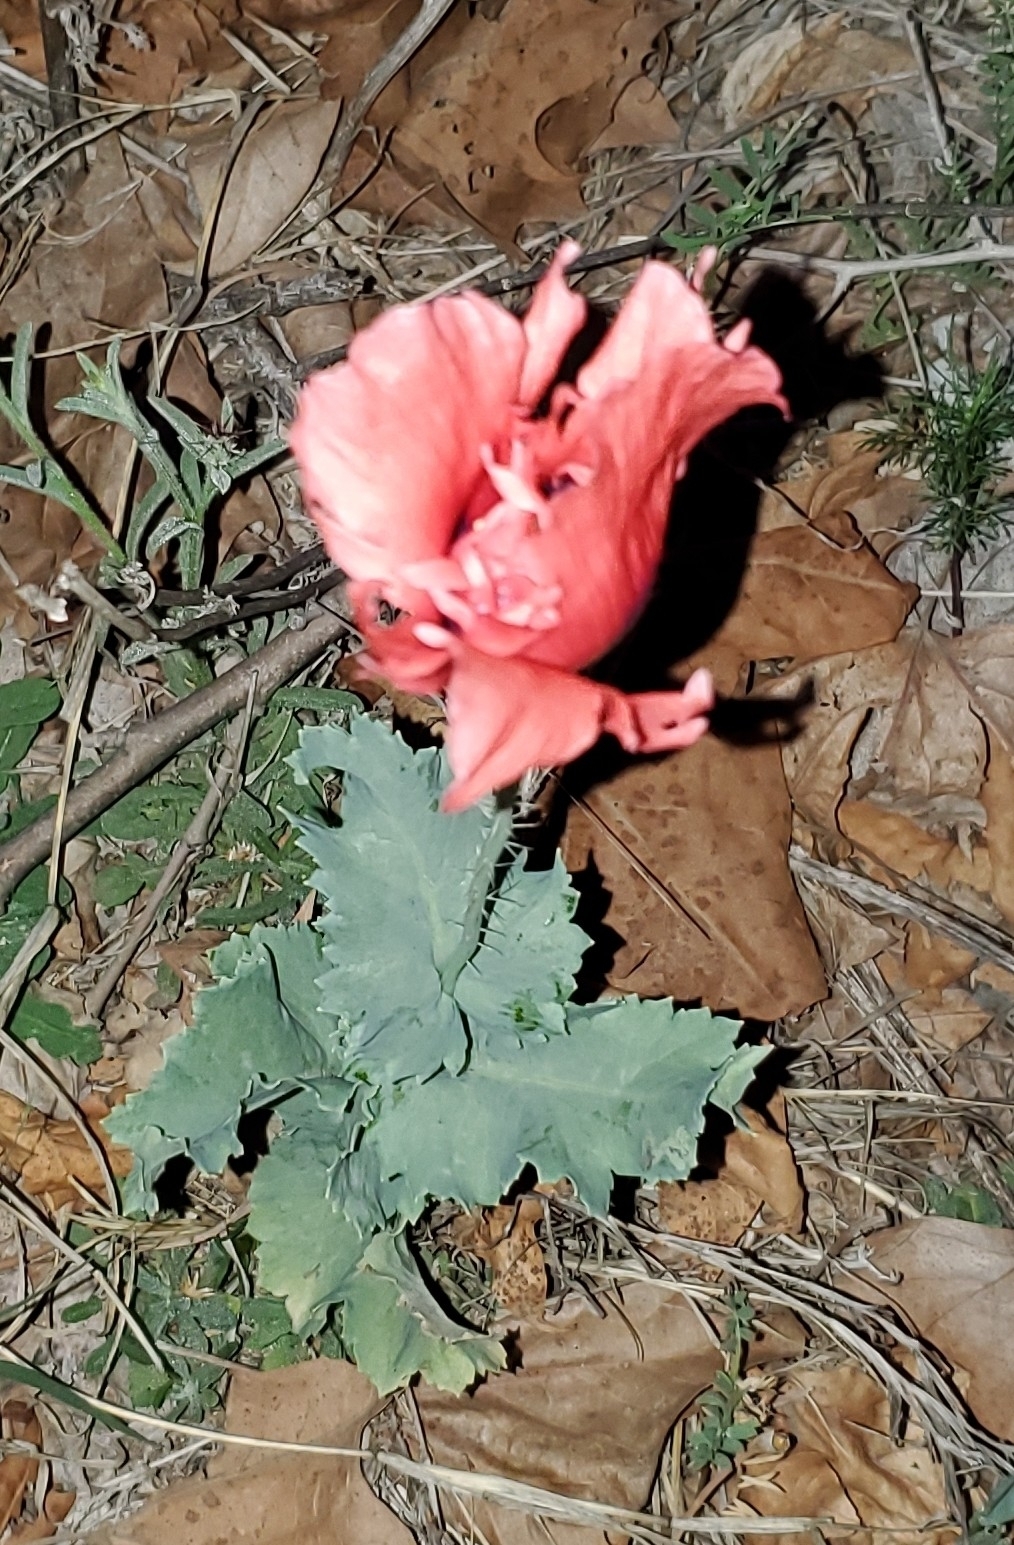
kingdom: Plantae
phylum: Tracheophyta
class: Magnoliopsida
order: Ranunculales
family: Papaveraceae
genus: Papaver
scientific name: Papaver somniferum
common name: Opium poppy
